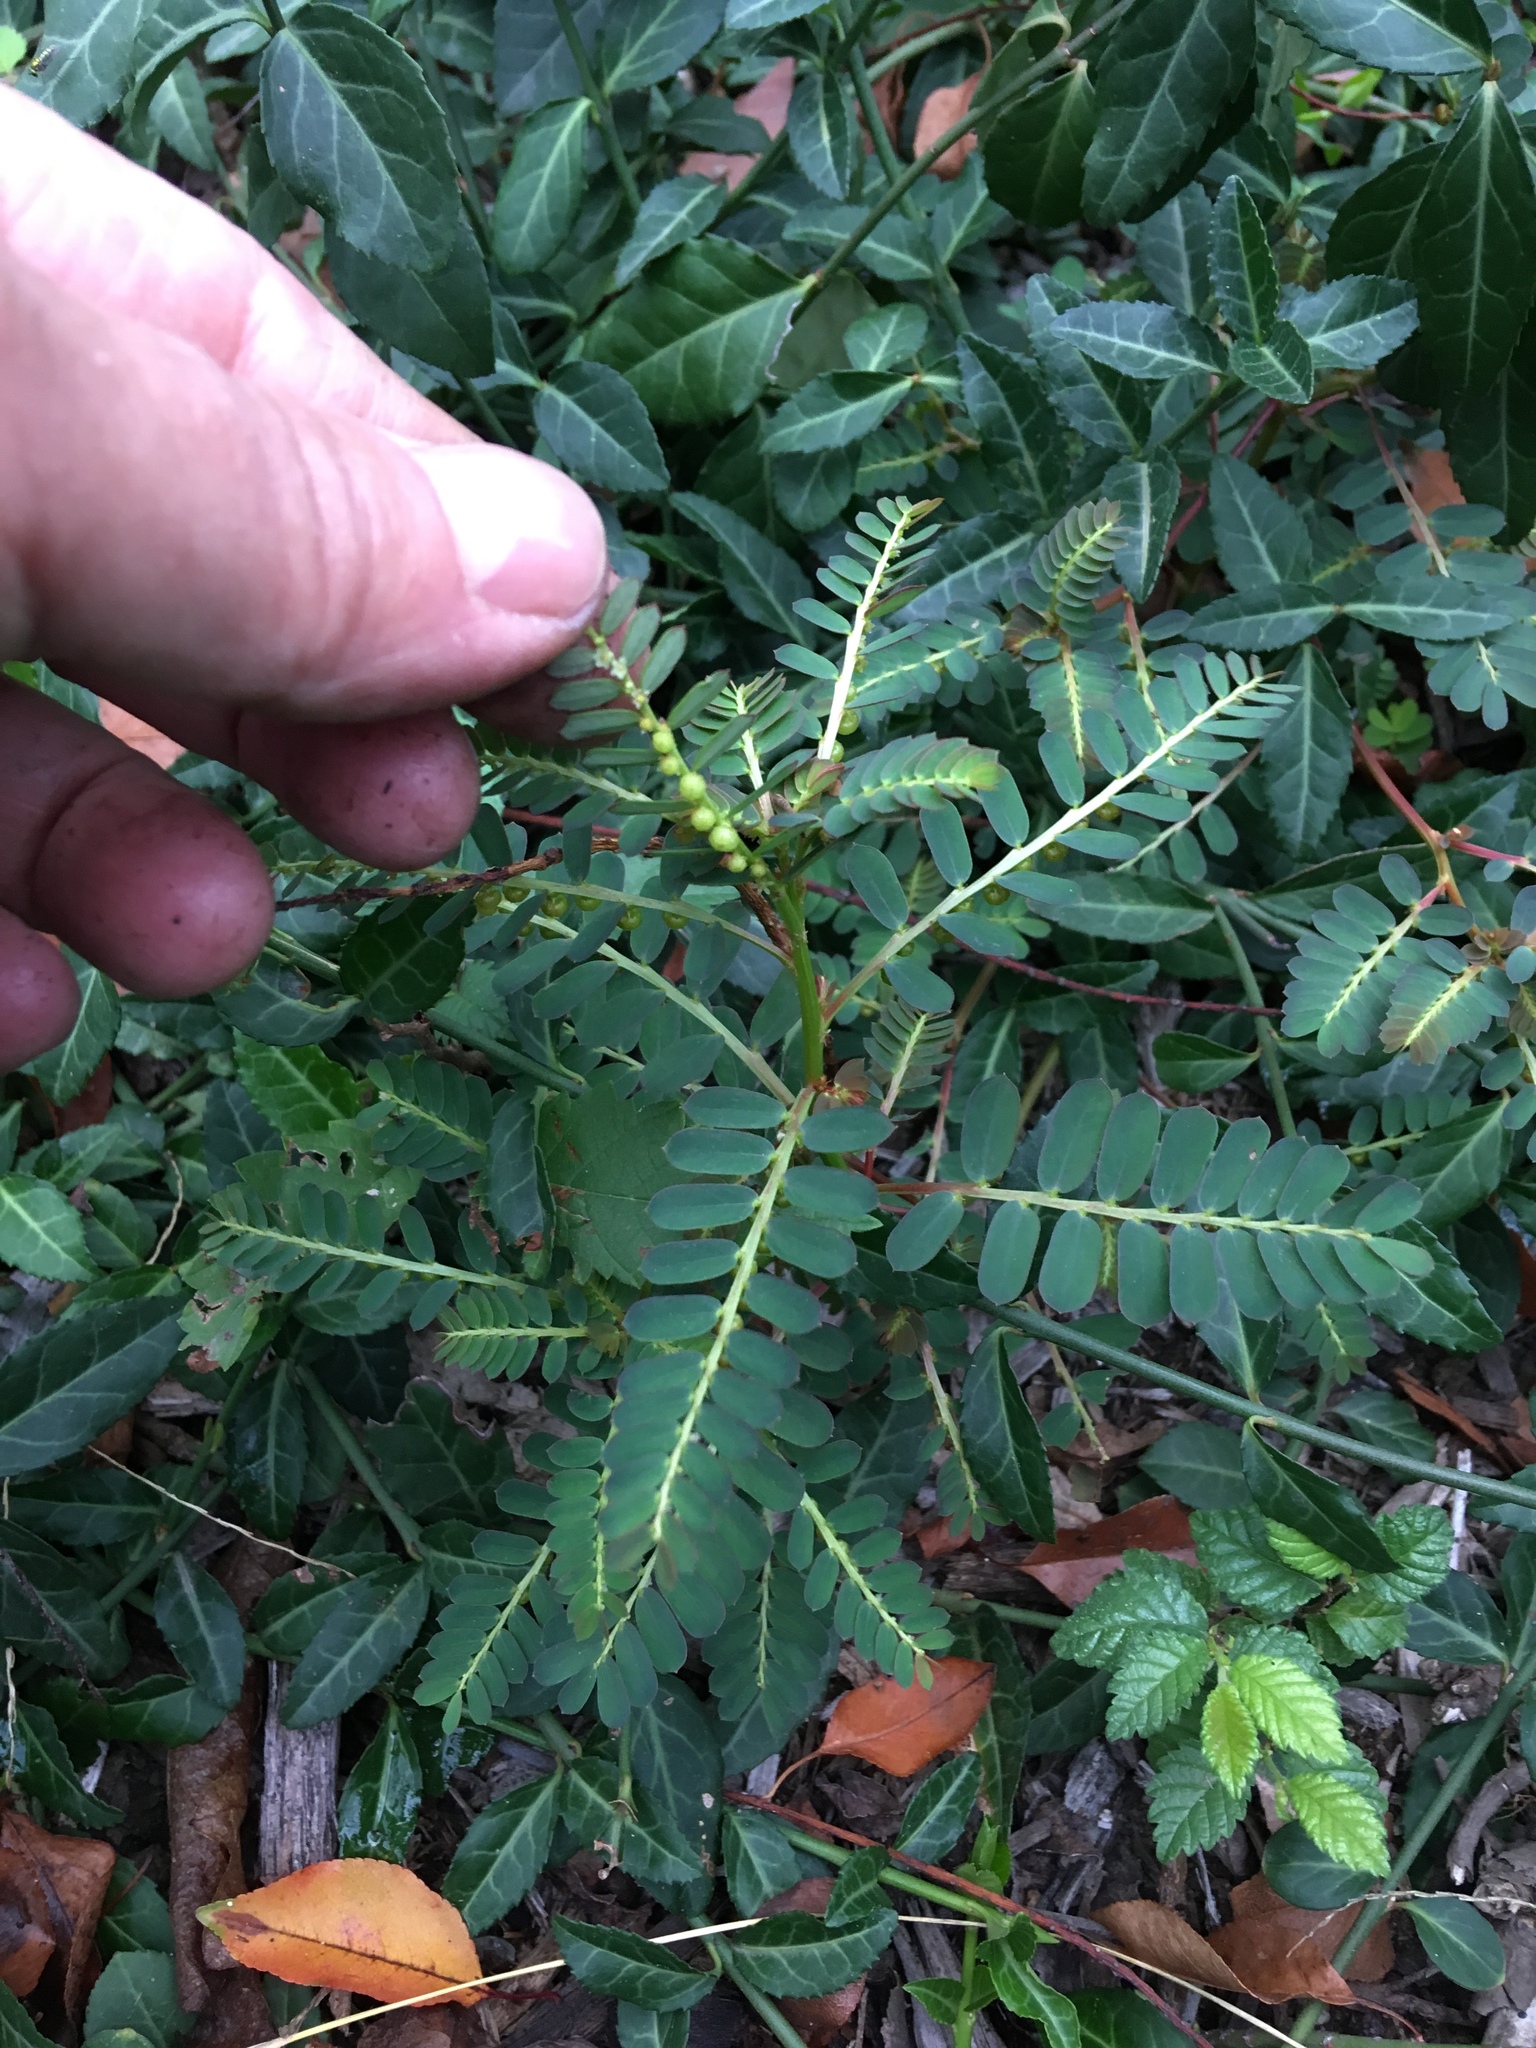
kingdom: Plantae
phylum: Tracheophyta
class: Magnoliopsida
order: Malpighiales
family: Phyllanthaceae
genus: Phyllanthus
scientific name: Phyllanthus urinaria
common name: Chamber bitter
